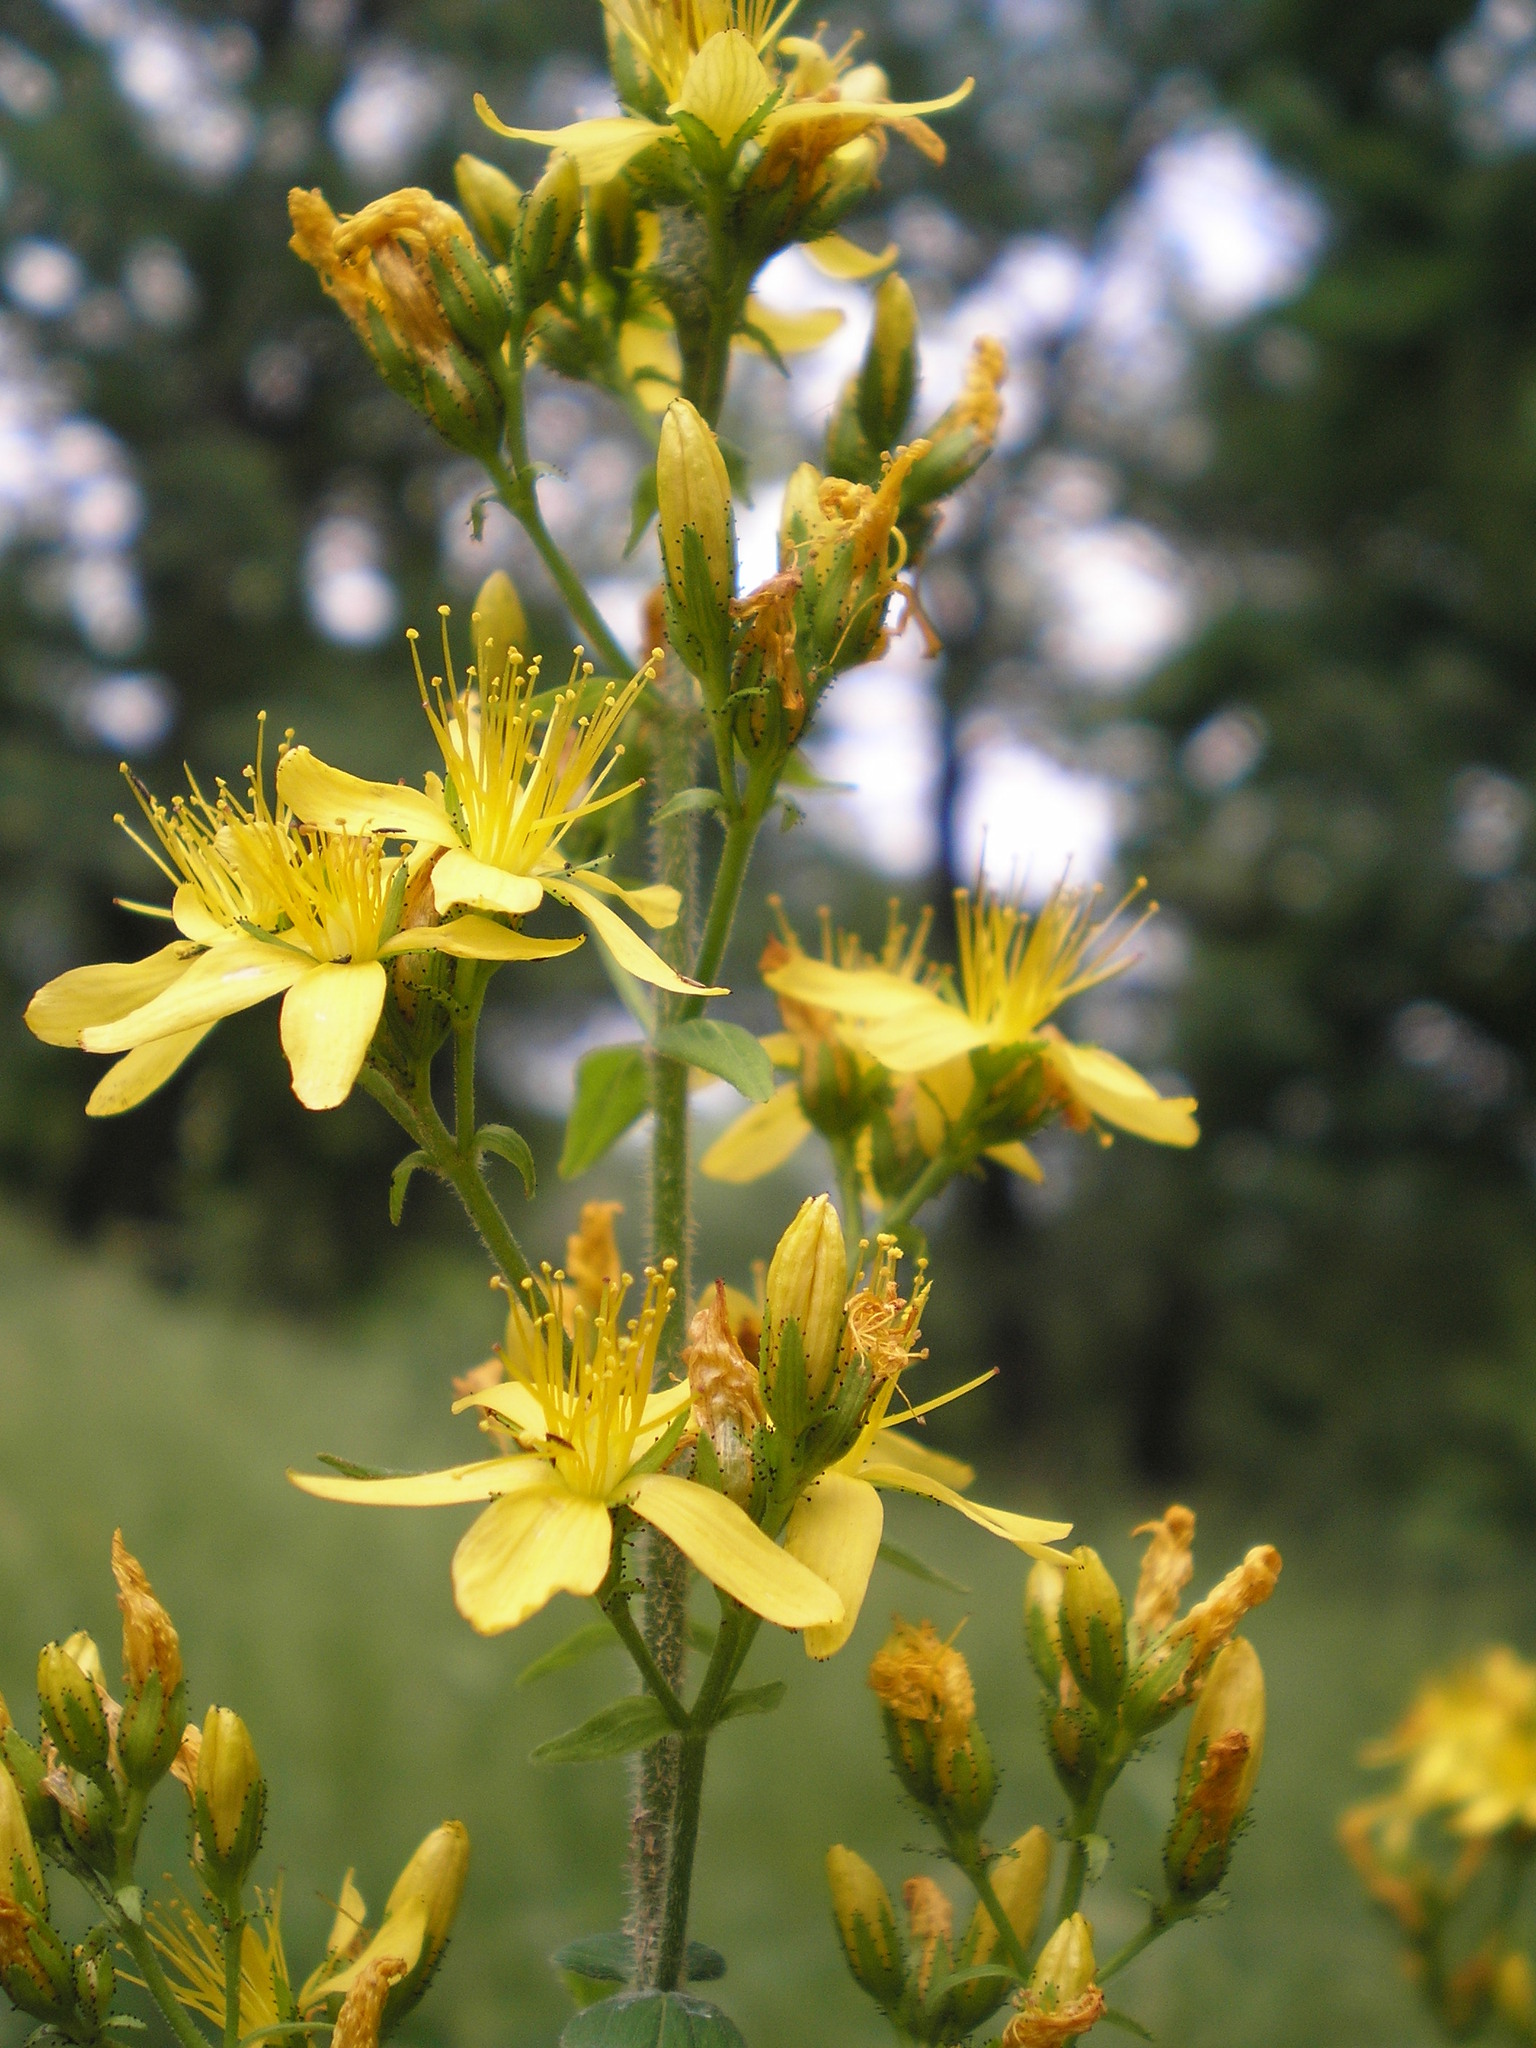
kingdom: Plantae
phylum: Tracheophyta
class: Magnoliopsida
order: Malpighiales
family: Hypericaceae
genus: Hypericum
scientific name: Hypericum hirsutum
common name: Hairy st. john's-wort
